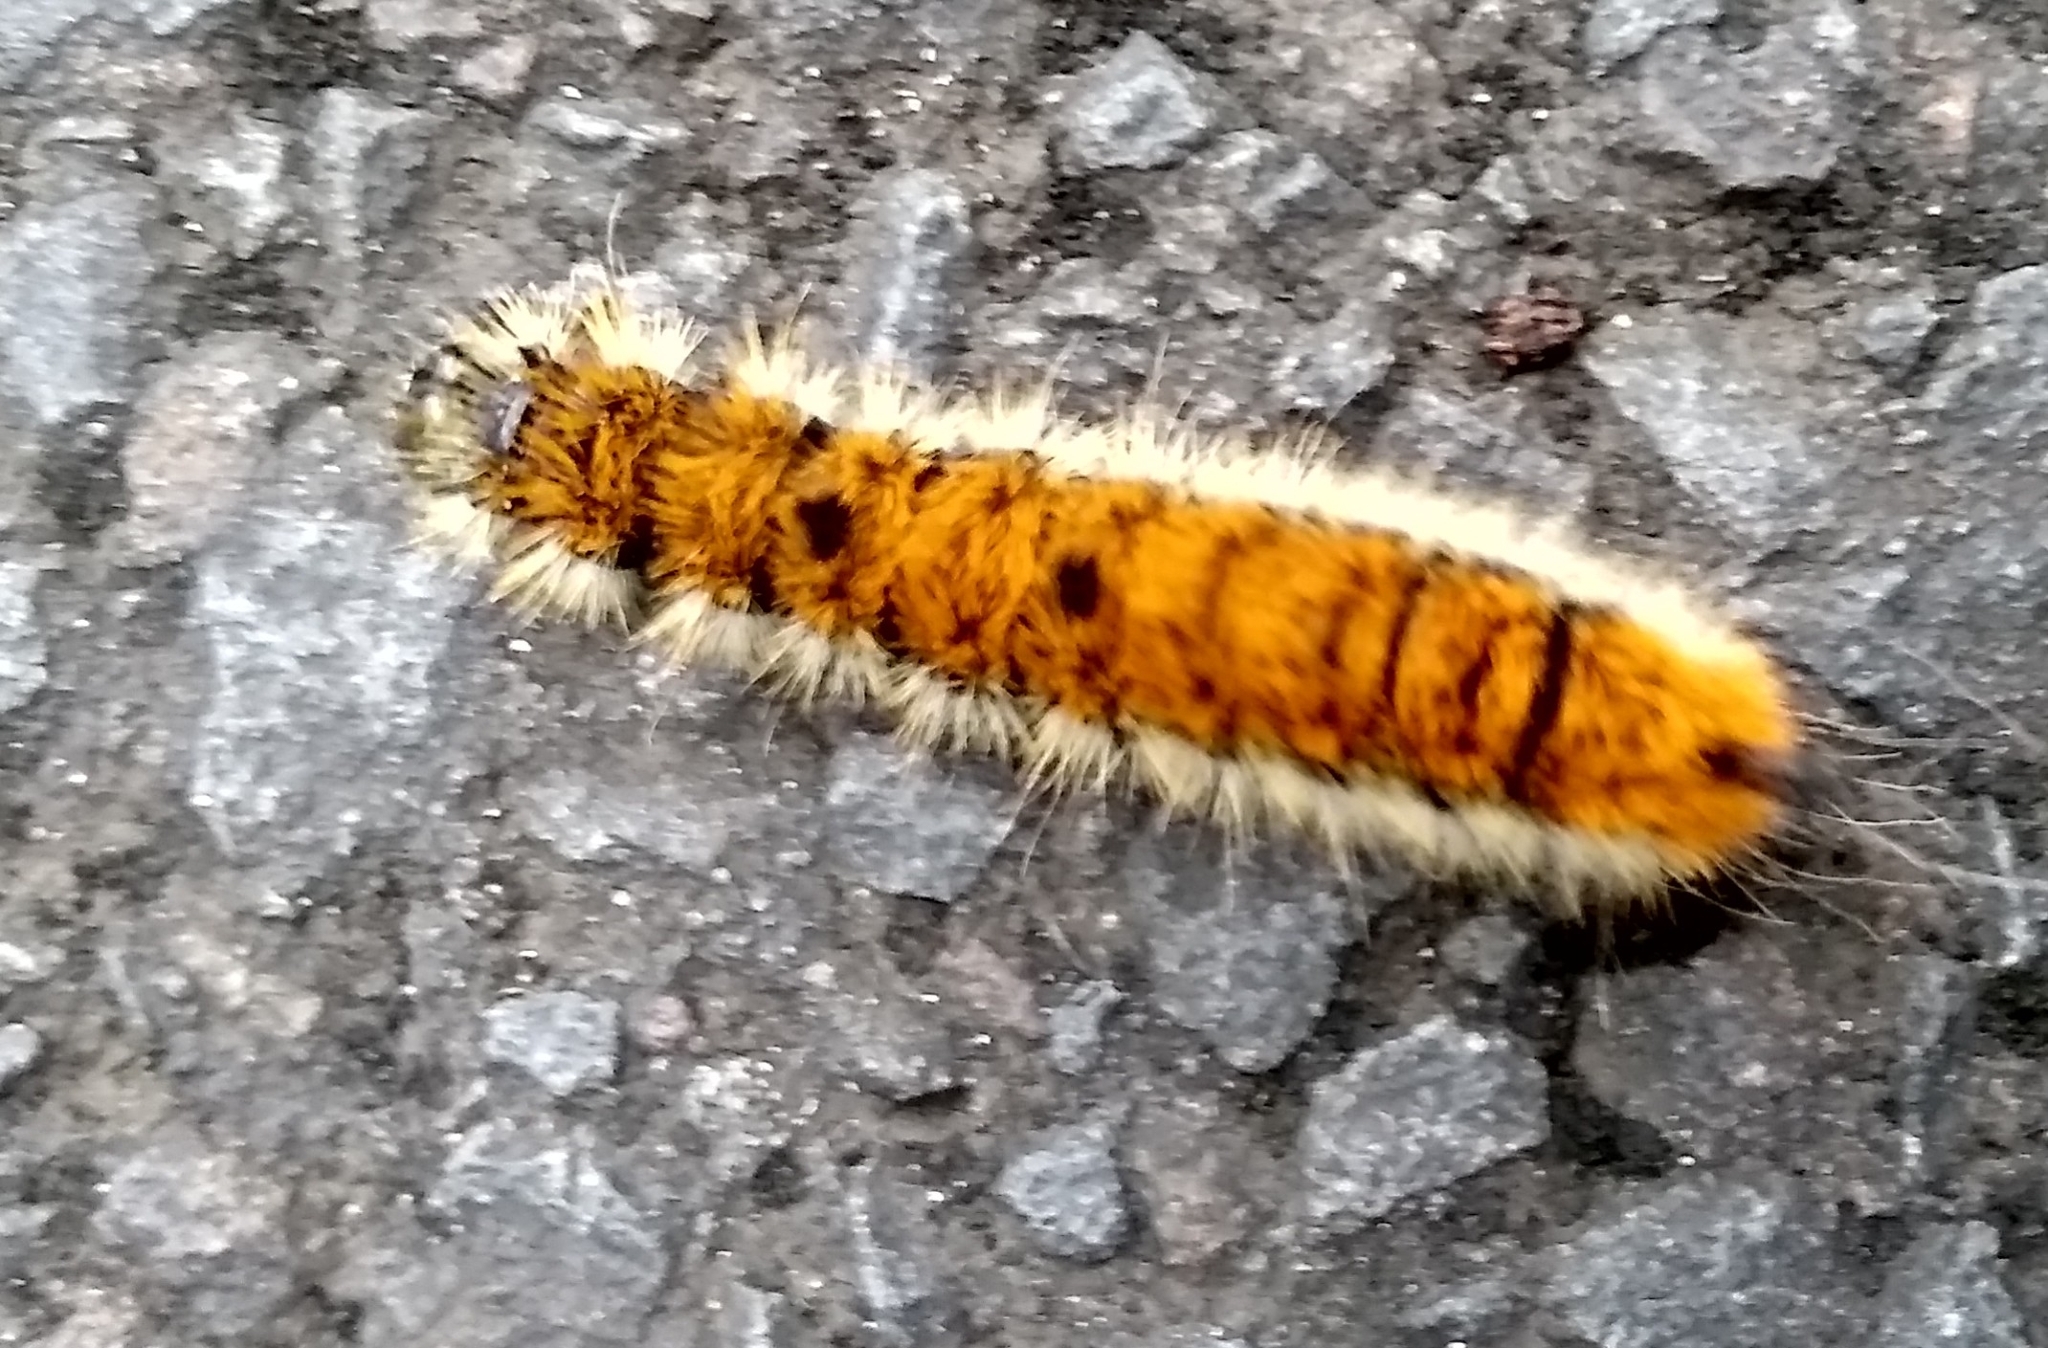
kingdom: Animalia
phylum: Arthropoda
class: Insecta
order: Lepidoptera
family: Noctuidae
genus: Acronicta
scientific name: Acronicta insita
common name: Large gray dagger
